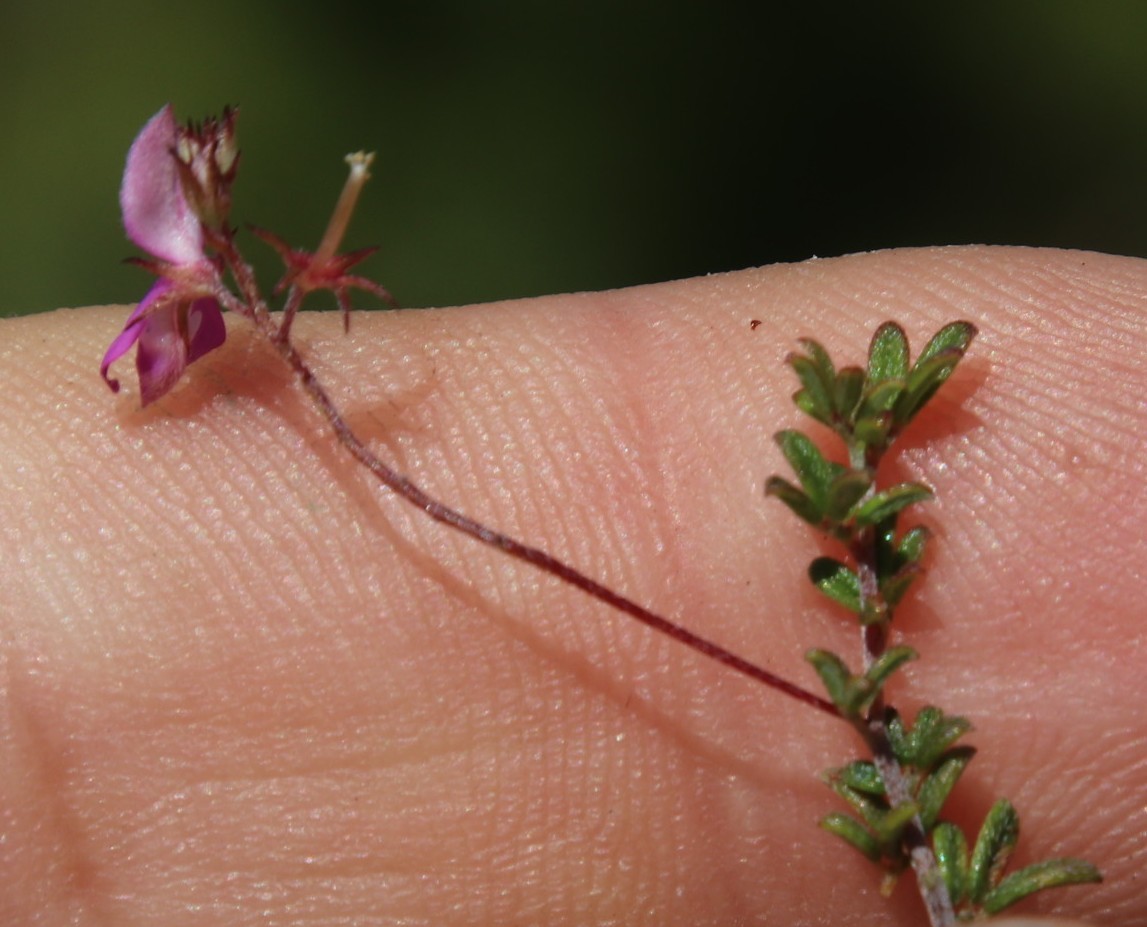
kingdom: Plantae
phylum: Tracheophyta
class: Magnoliopsida
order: Fabales
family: Fabaceae
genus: Indigofera
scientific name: Indigofera angustifolia
